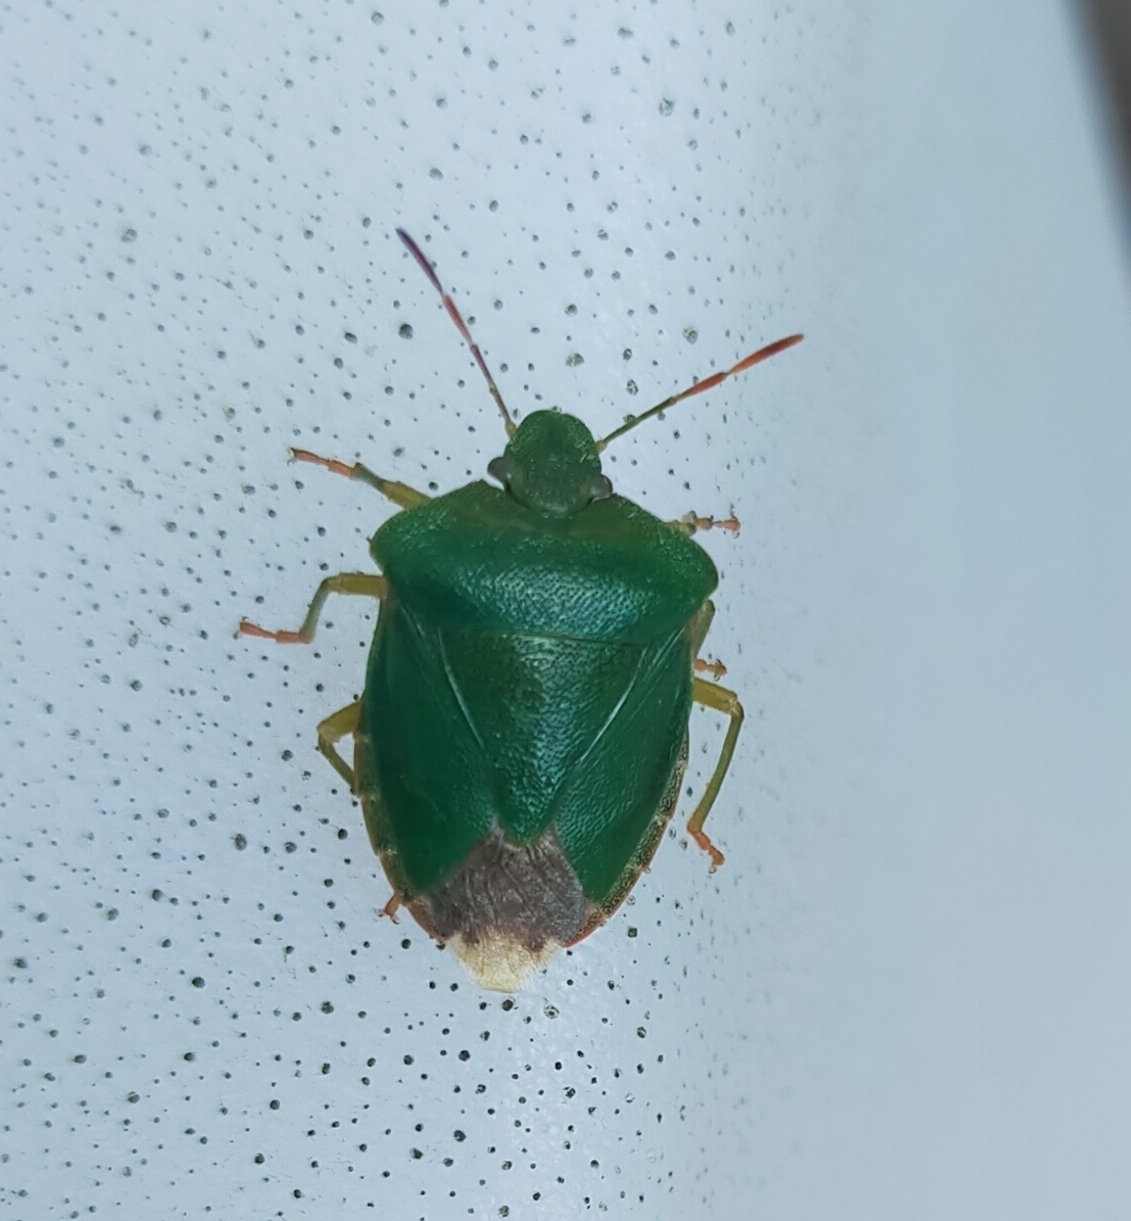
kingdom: Animalia
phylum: Arthropoda
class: Insecta
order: Hemiptera
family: Pentatomidae
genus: Palomena
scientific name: Palomena prasina
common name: Green shieldbug
